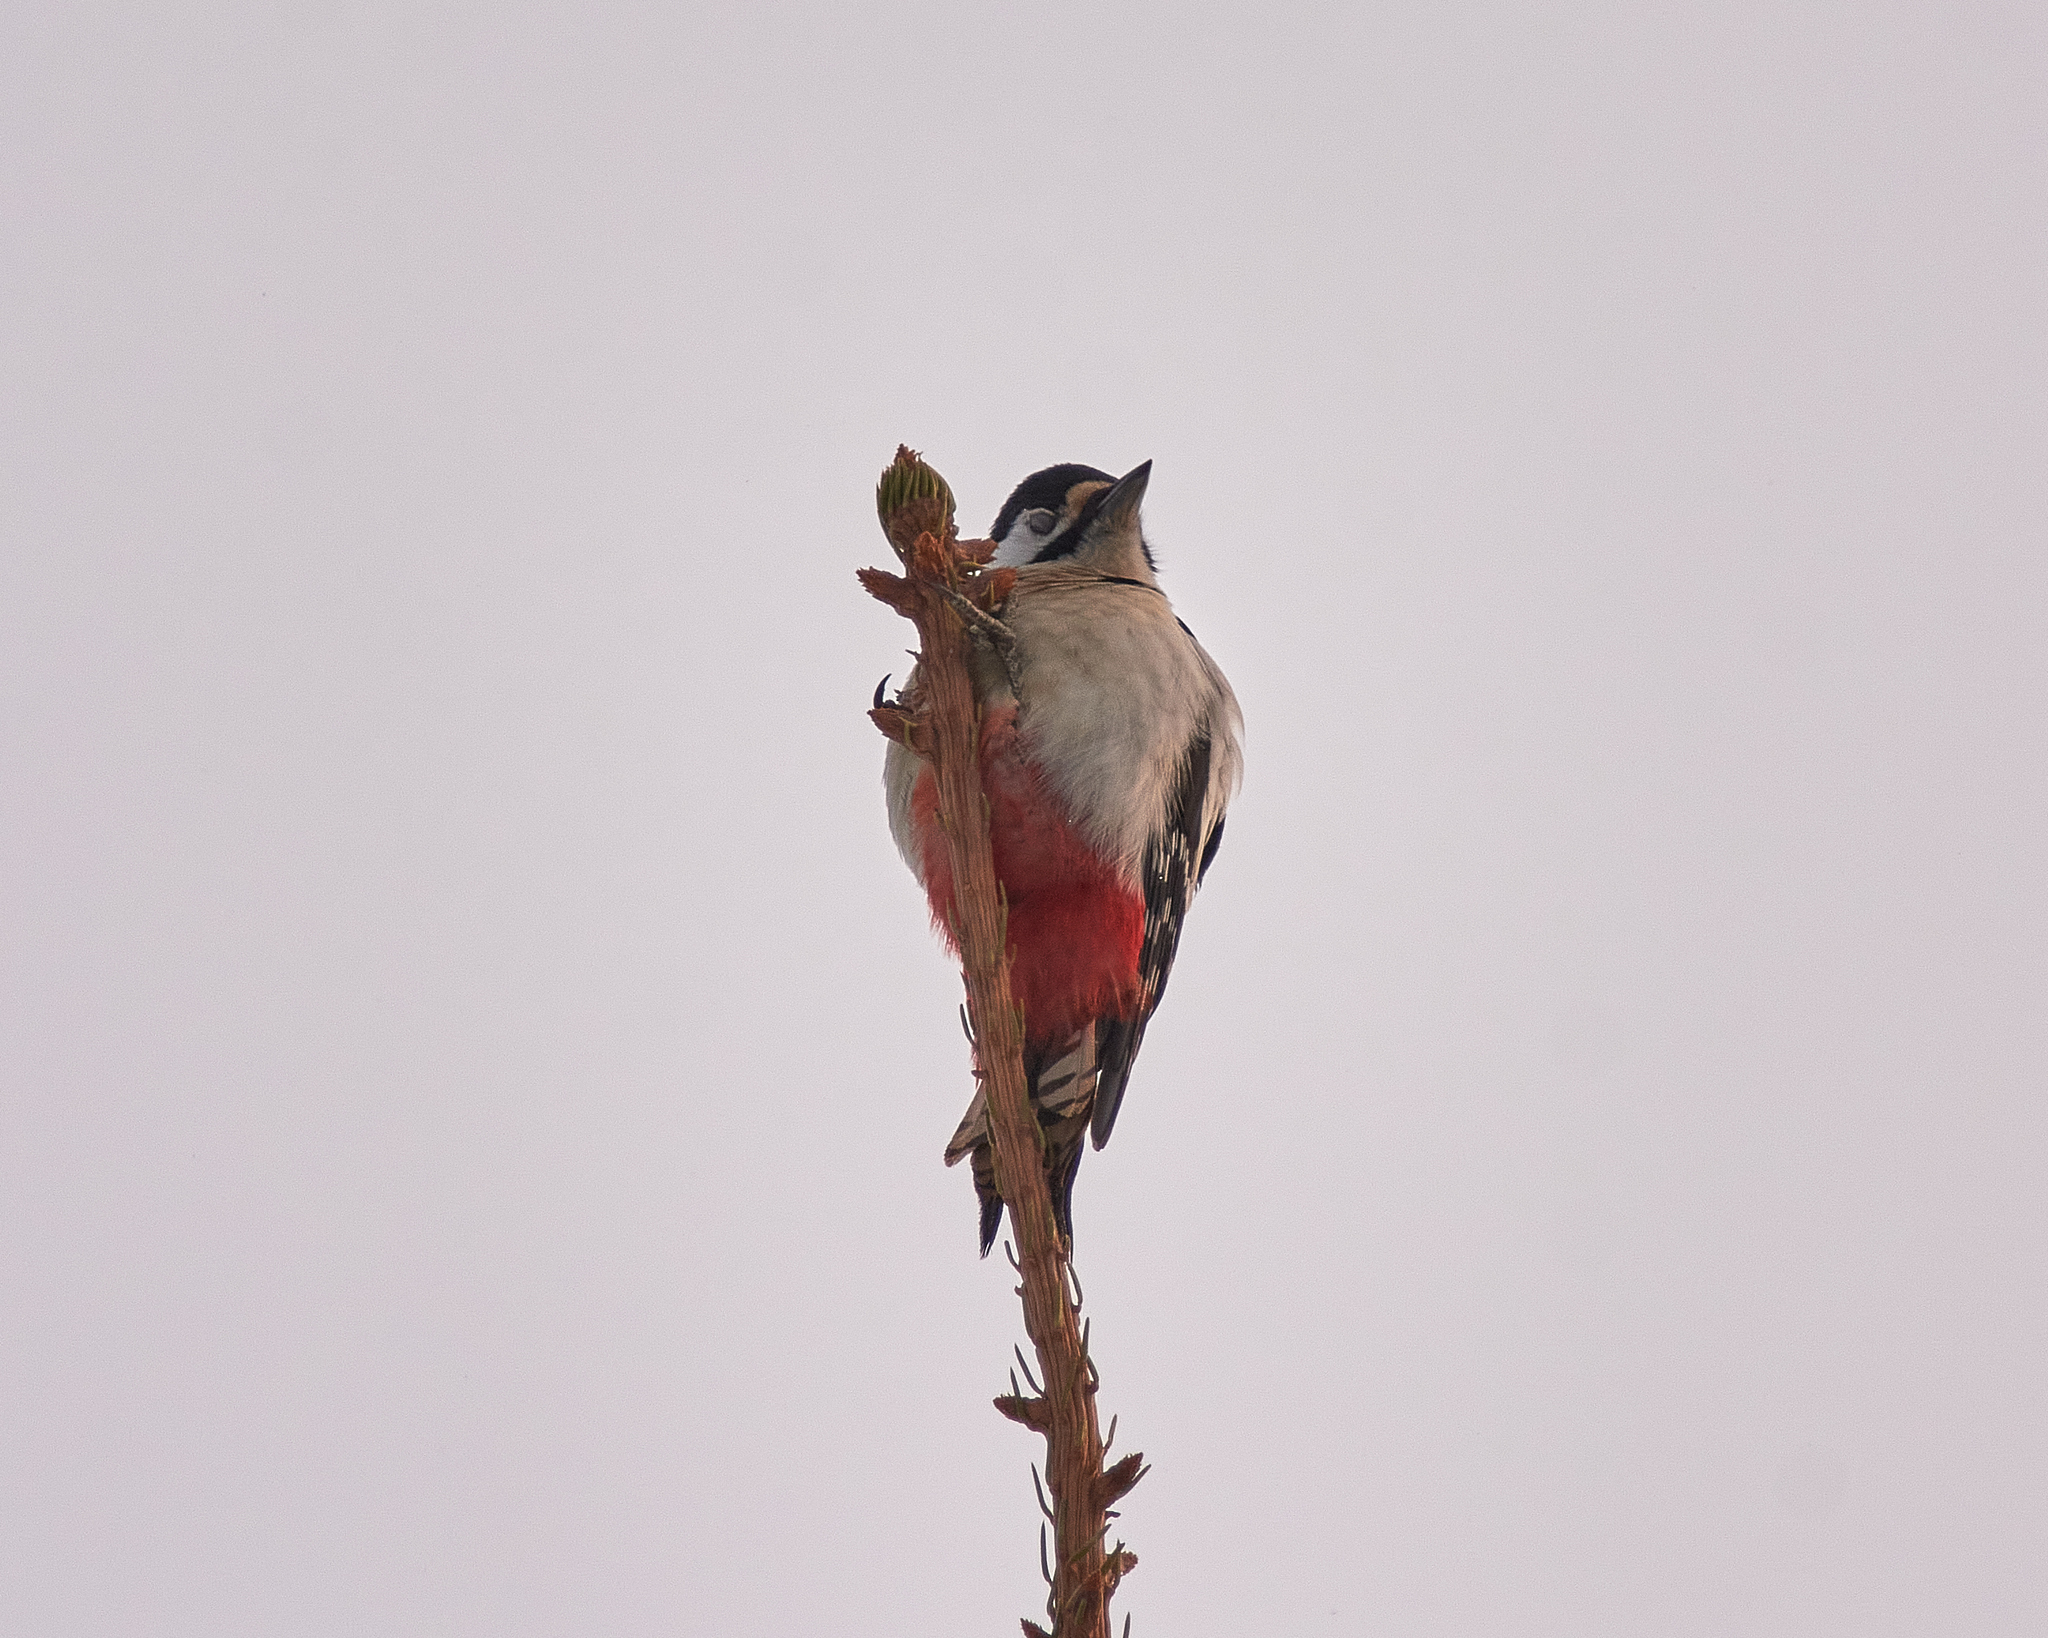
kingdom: Animalia
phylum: Chordata
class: Aves
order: Piciformes
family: Picidae
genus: Dendrocopos
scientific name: Dendrocopos major
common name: Great spotted woodpecker
